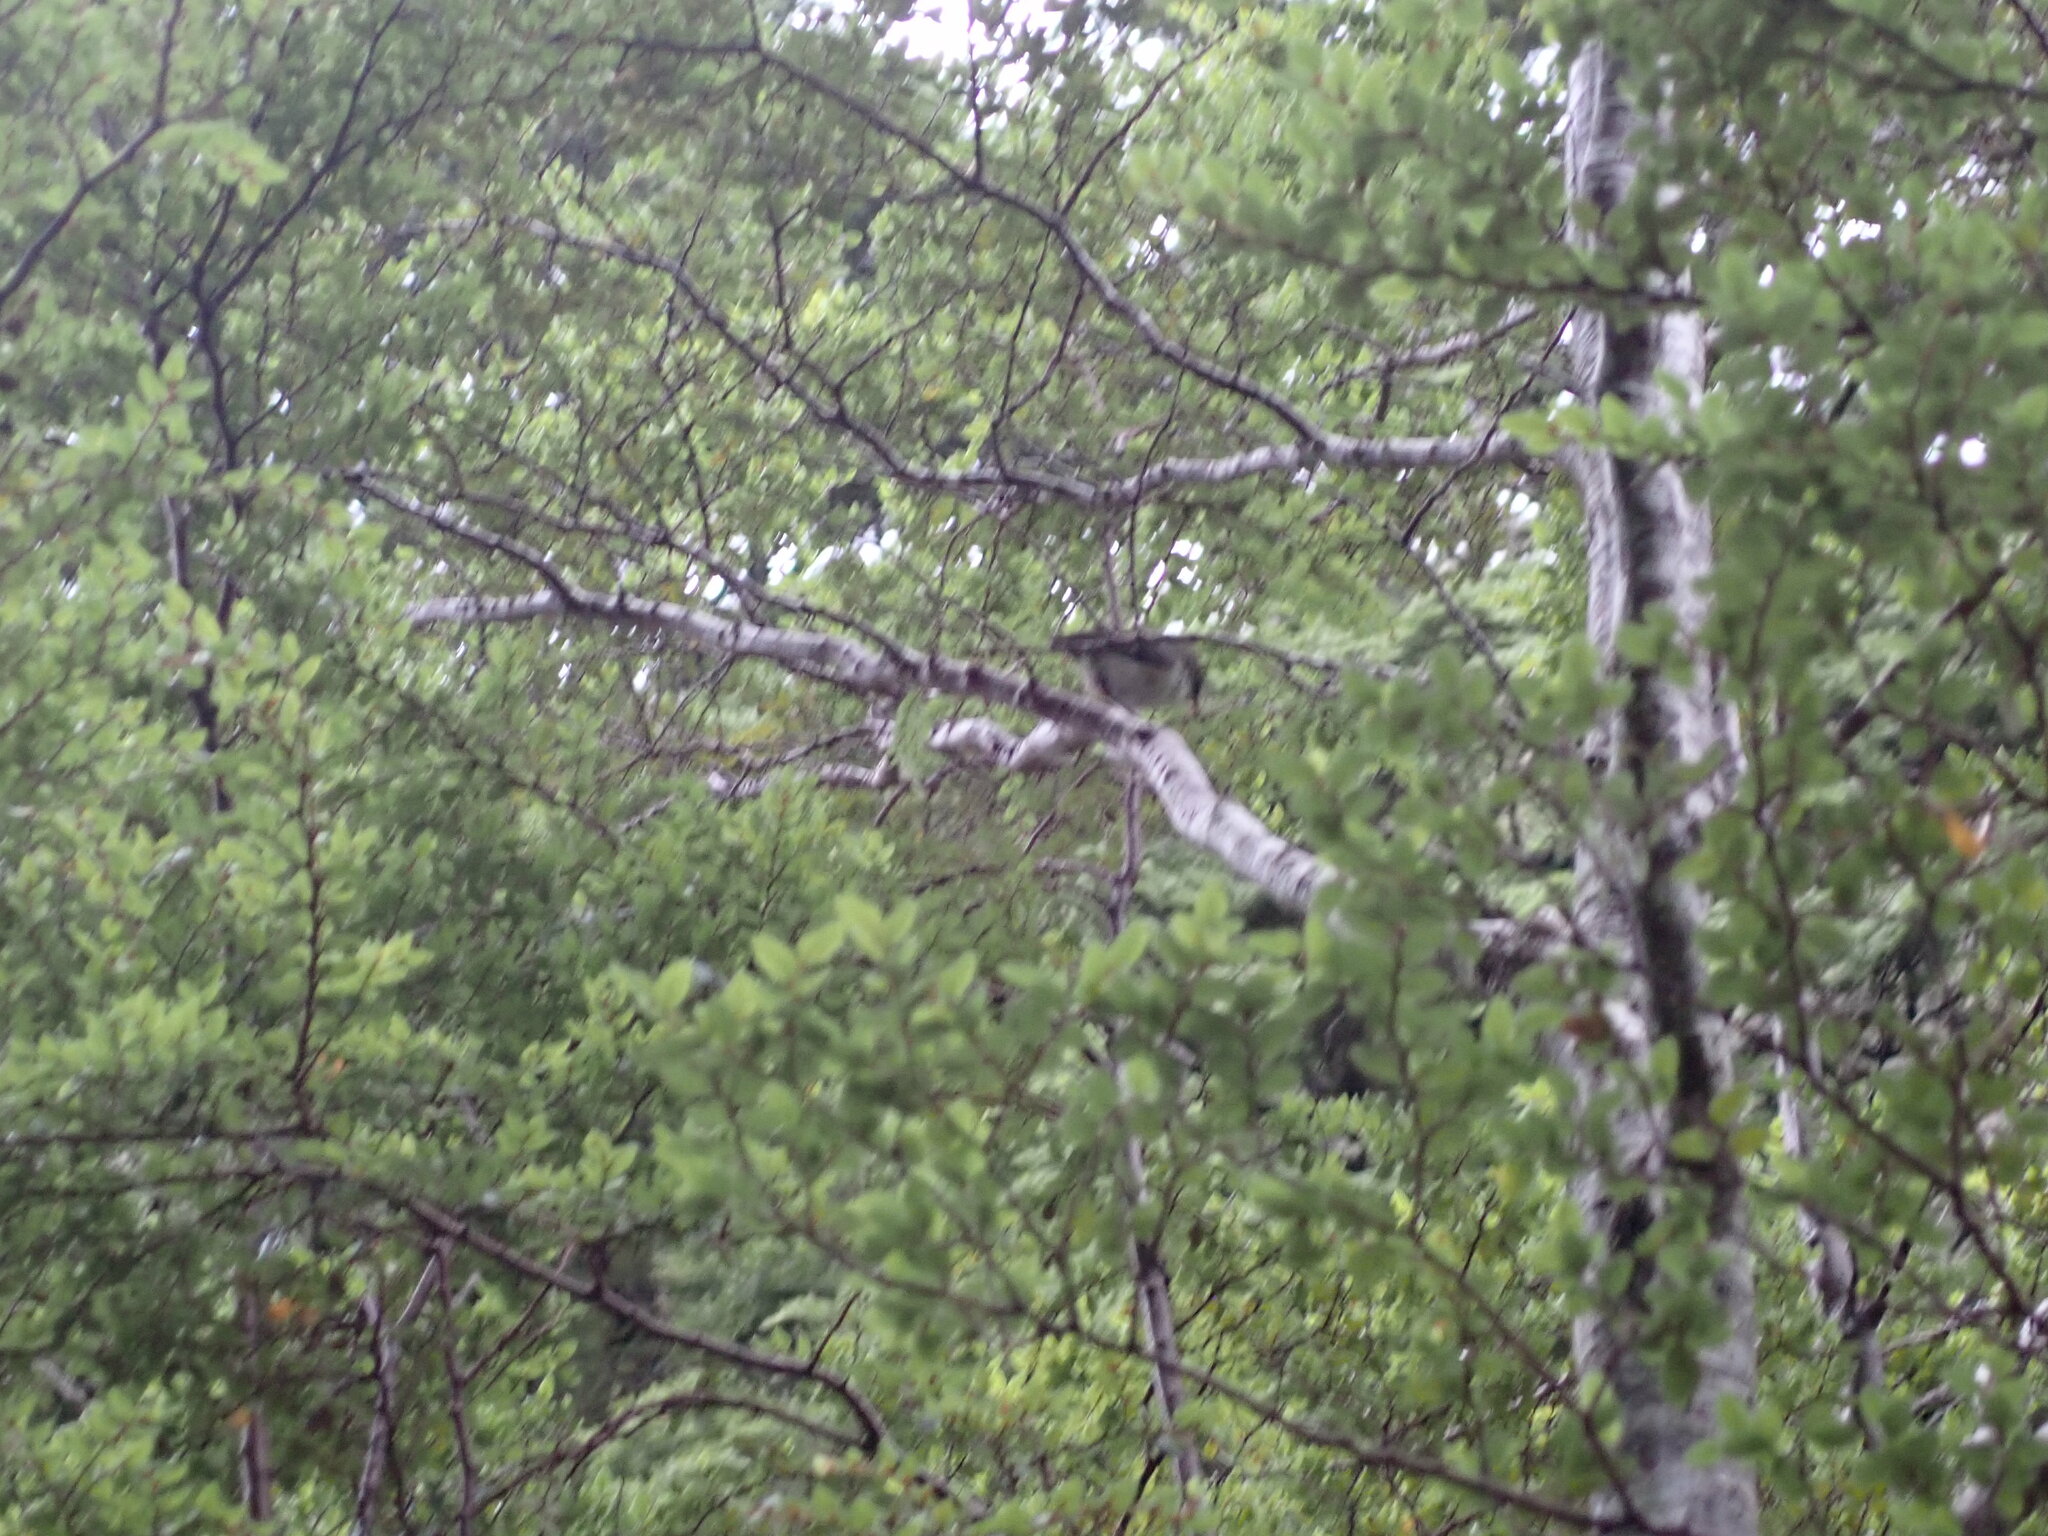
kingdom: Animalia
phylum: Chordata
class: Aves
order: Passeriformes
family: Acanthisittidae
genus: Acanthisitta
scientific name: Acanthisitta chloris
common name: Rifleman
